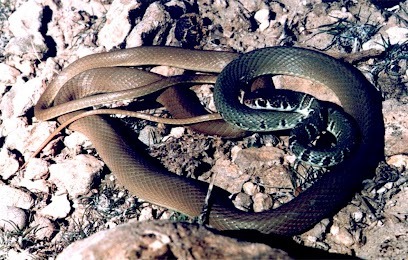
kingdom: Animalia
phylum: Chordata
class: Squamata
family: Colubridae
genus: Platyceps
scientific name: Platyceps najadum
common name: Dahl's whip snake
